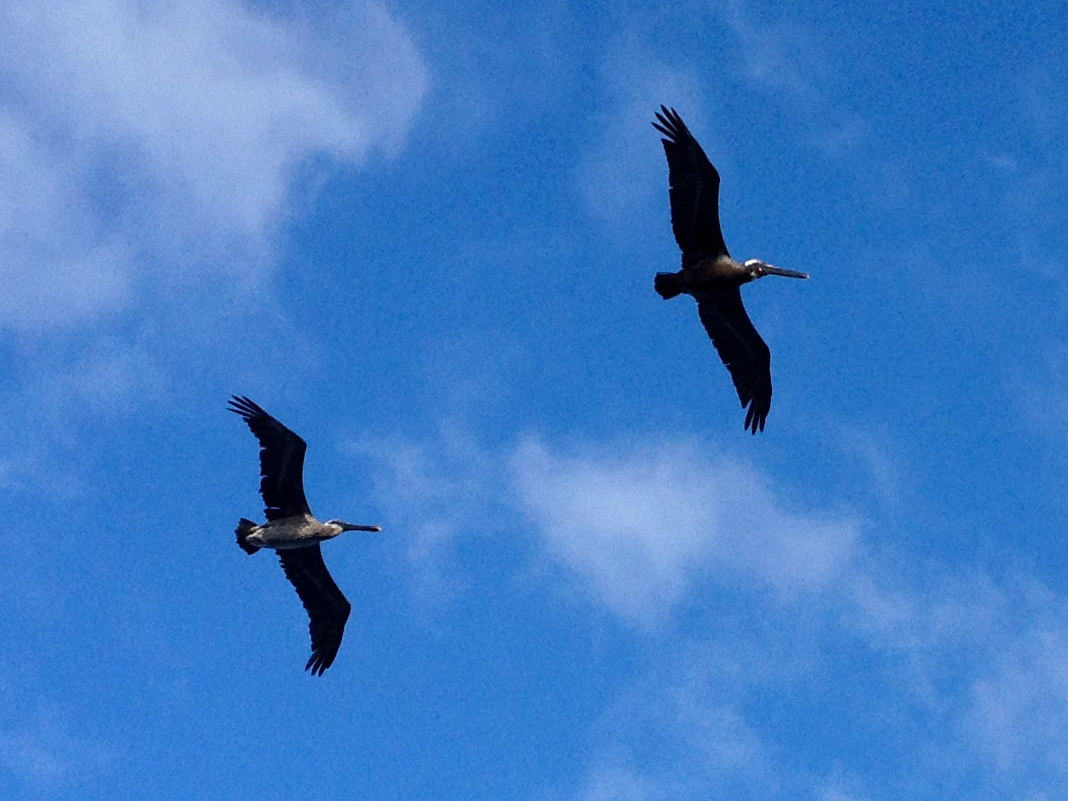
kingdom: Animalia
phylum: Chordata
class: Aves
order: Pelecaniformes
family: Pelecanidae
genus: Pelecanus
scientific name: Pelecanus occidentalis
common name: Brown pelican
